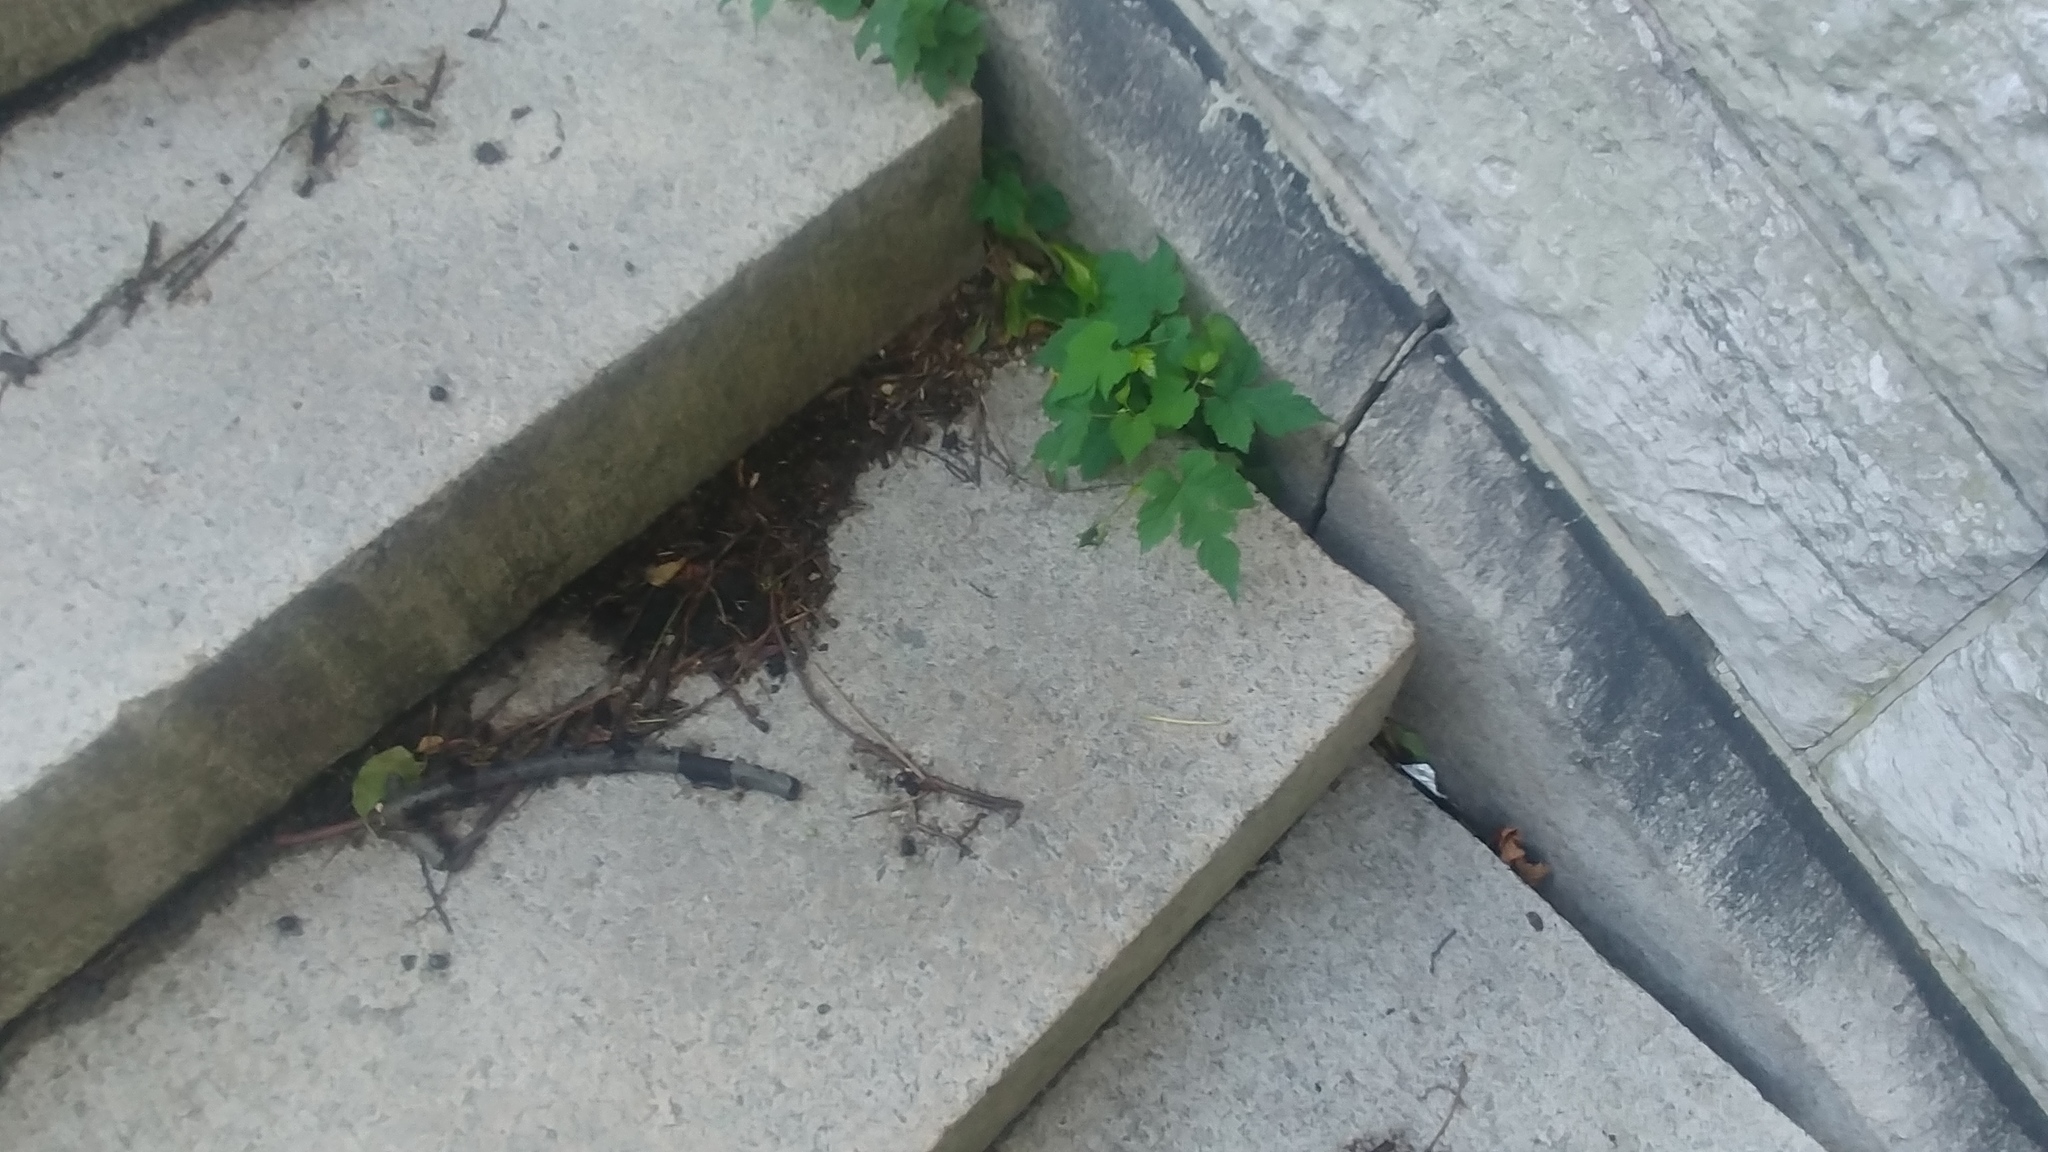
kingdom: Plantae
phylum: Tracheophyta
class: Magnoliopsida
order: Vitales
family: Vitaceae
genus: Ampelopsis
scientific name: Ampelopsis glandulosa
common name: Amur peppervine
